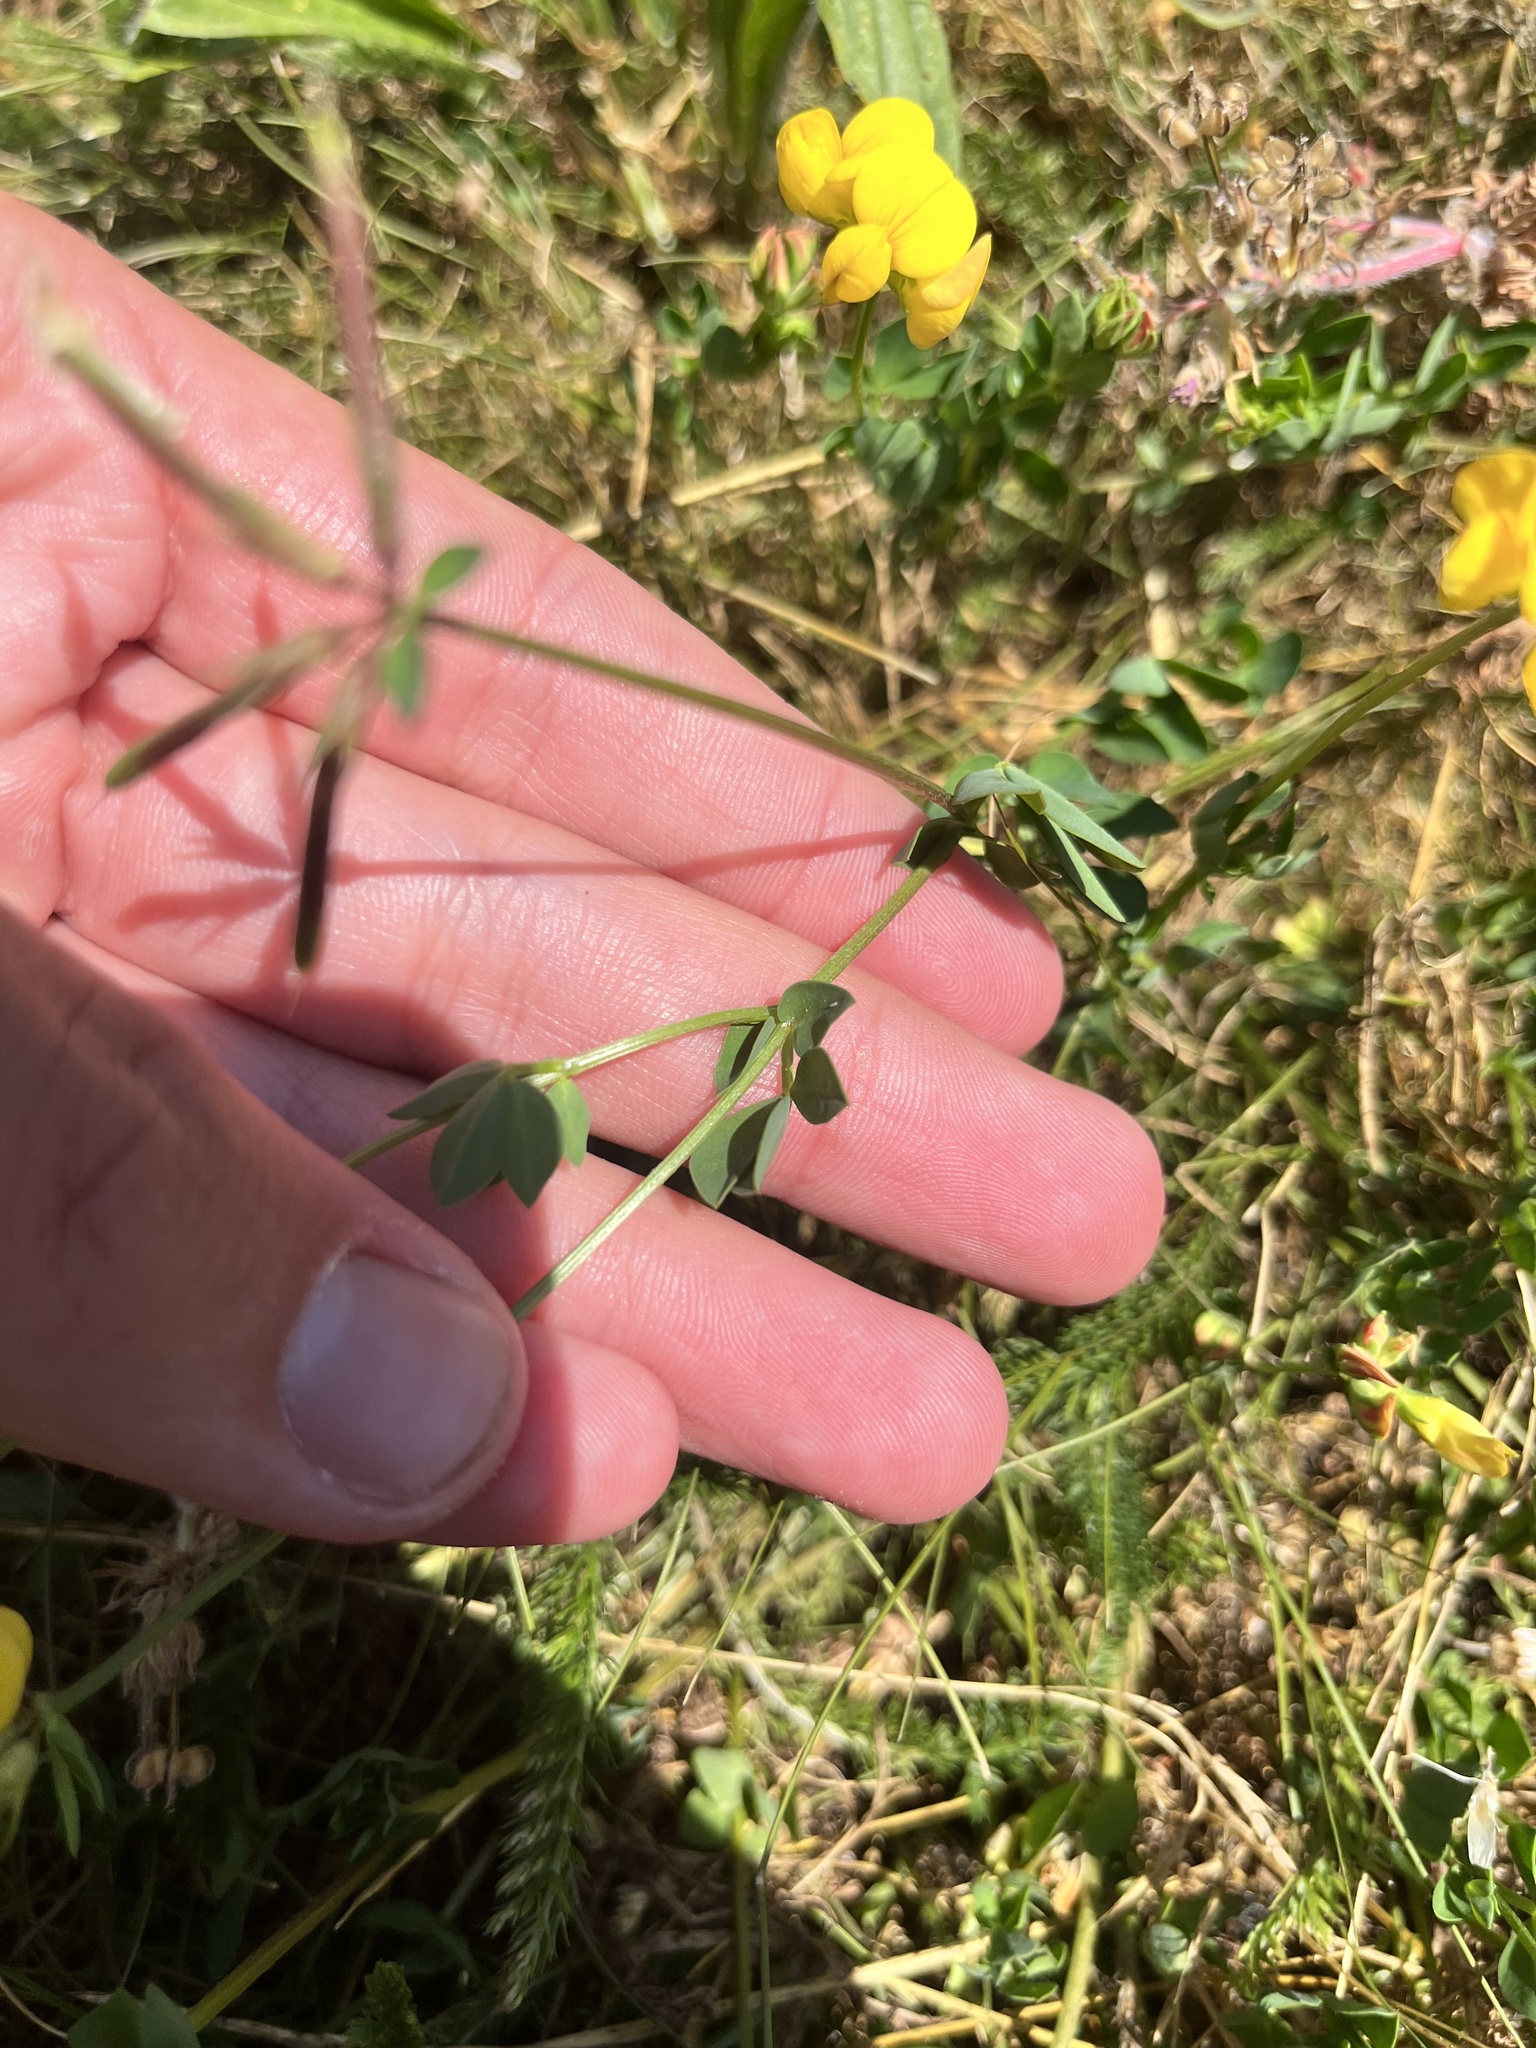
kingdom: Plantae
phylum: Tracheophyta
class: Magnoliopsida
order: Fabales
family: Fabaceae
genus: Lotus
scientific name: Lotus corniculatus
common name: Common bird's-foot-trefoil
